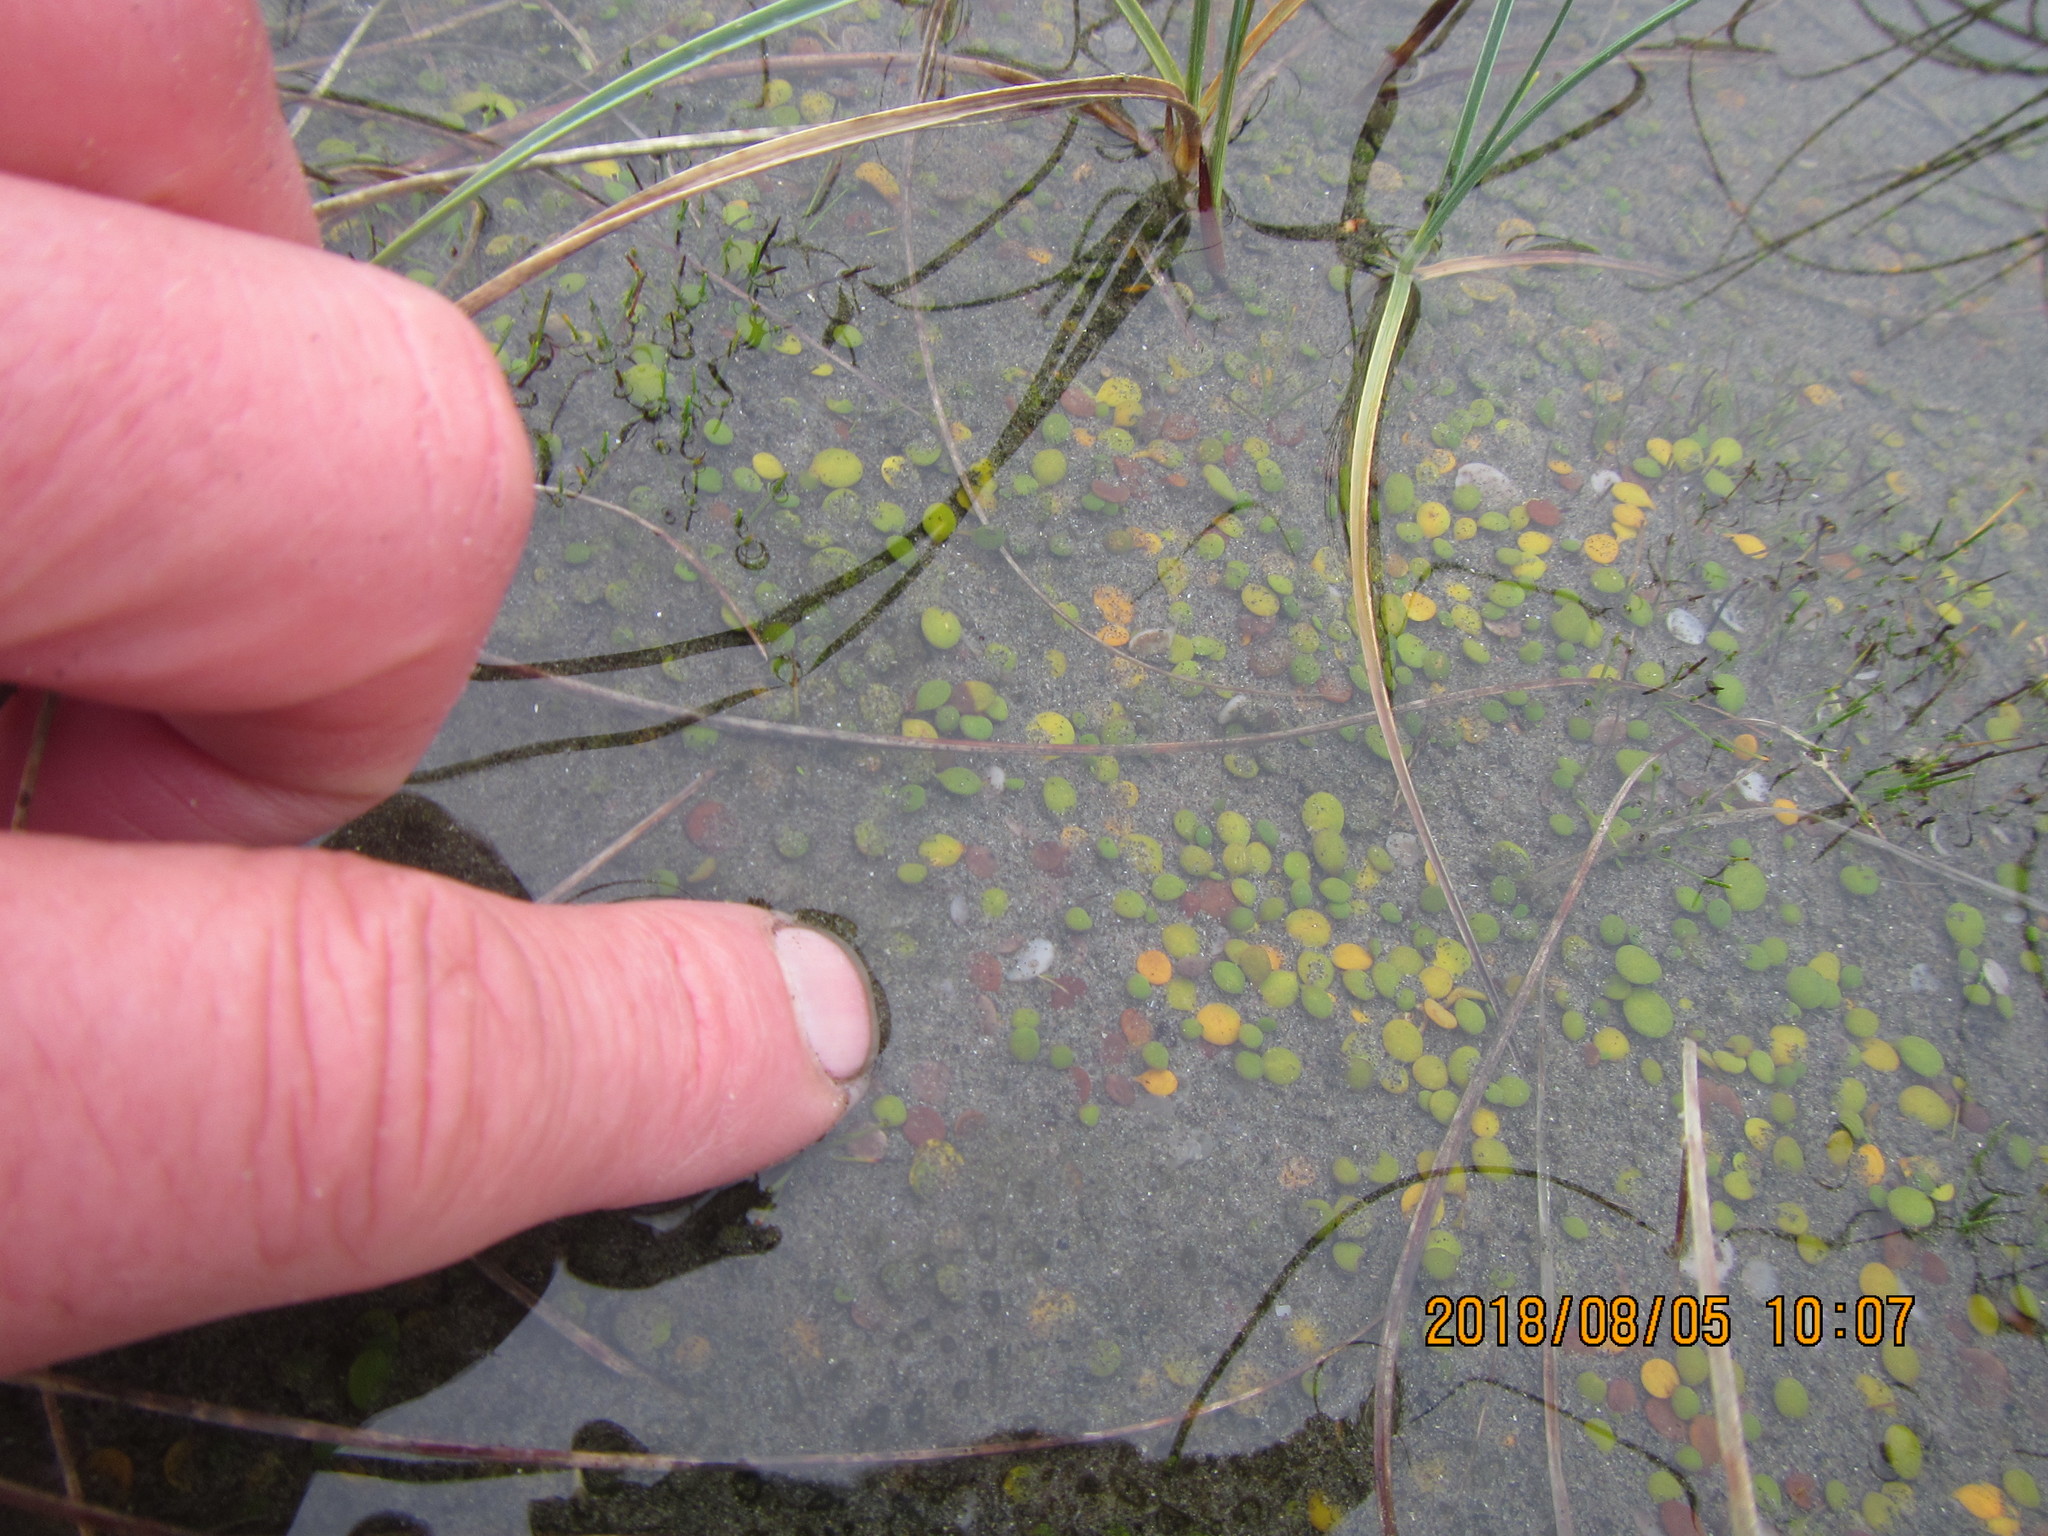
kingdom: Plantae
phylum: Tracheophyta
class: Magnoliopsida
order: Asterales
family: Goodeniaceae
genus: Goodenia
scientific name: Goodenia heenanii
